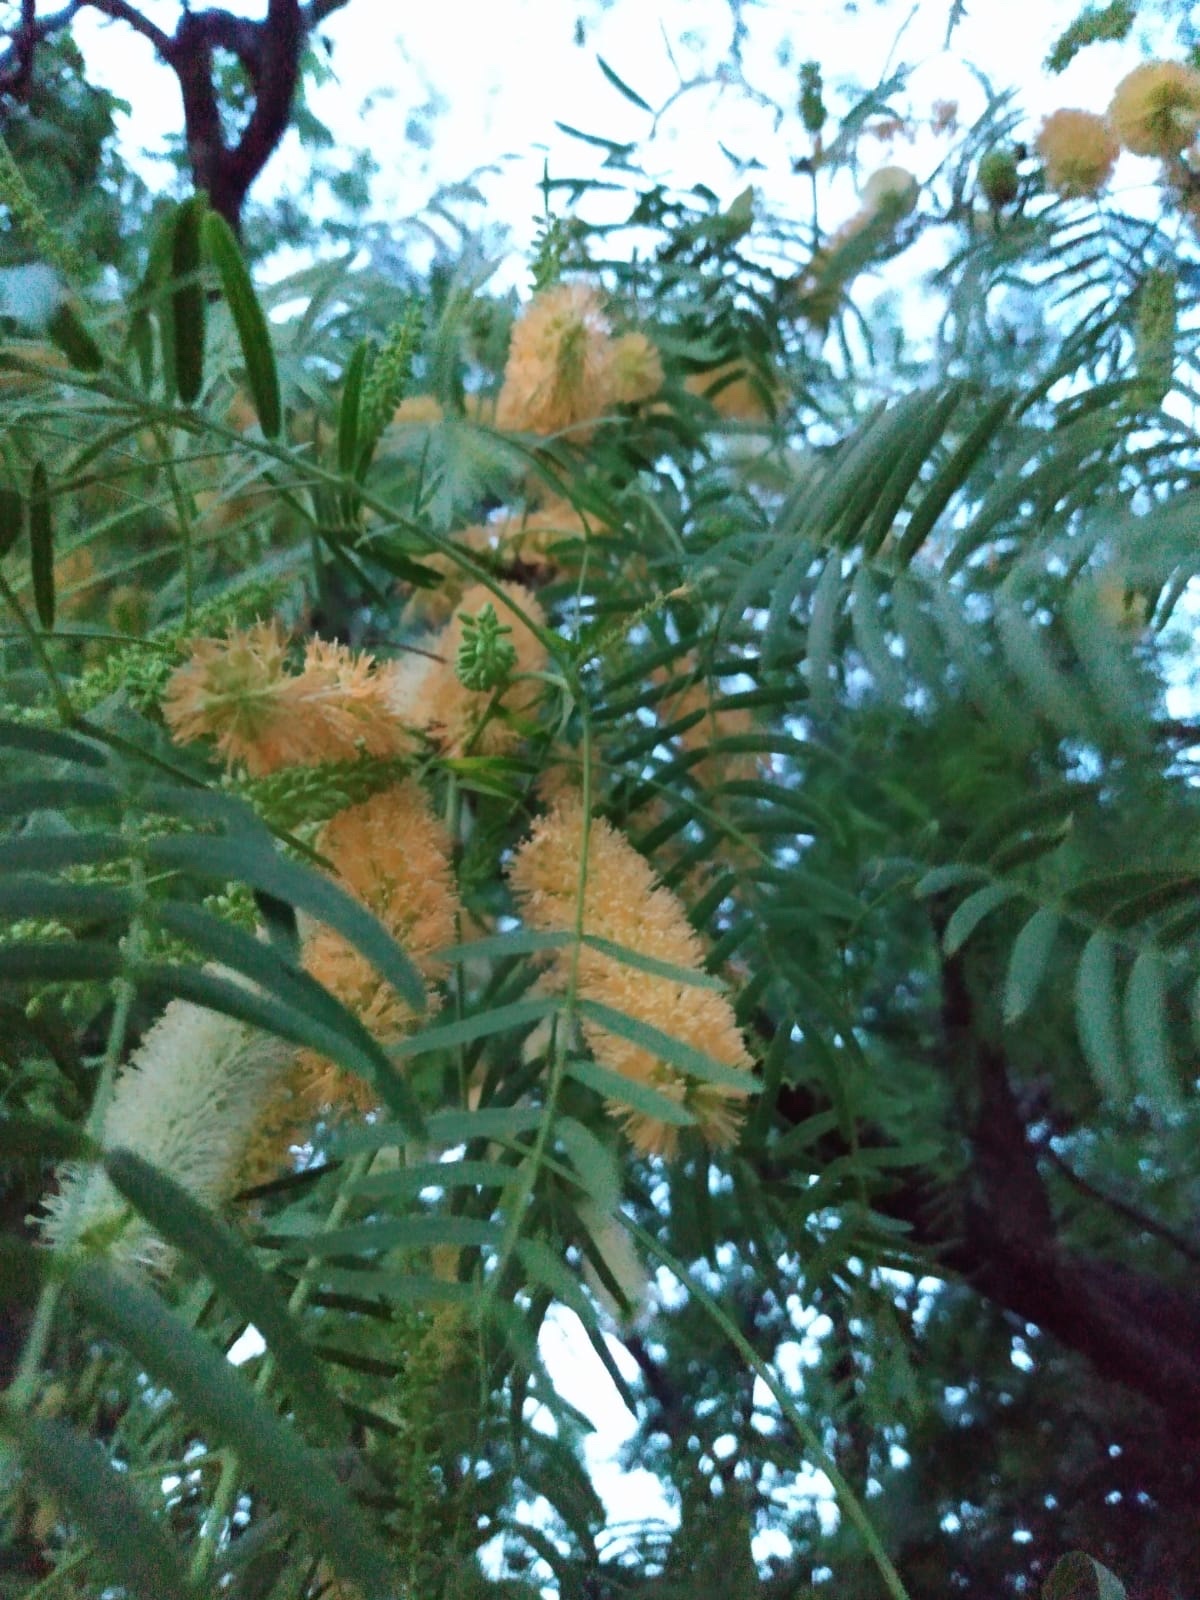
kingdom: Plantae
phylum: Tracheophyta
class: Magnoliopsida
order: Fabales
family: Fabaceae
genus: Prosopis
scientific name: Prosopis glandulosa
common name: Honey mesquite
